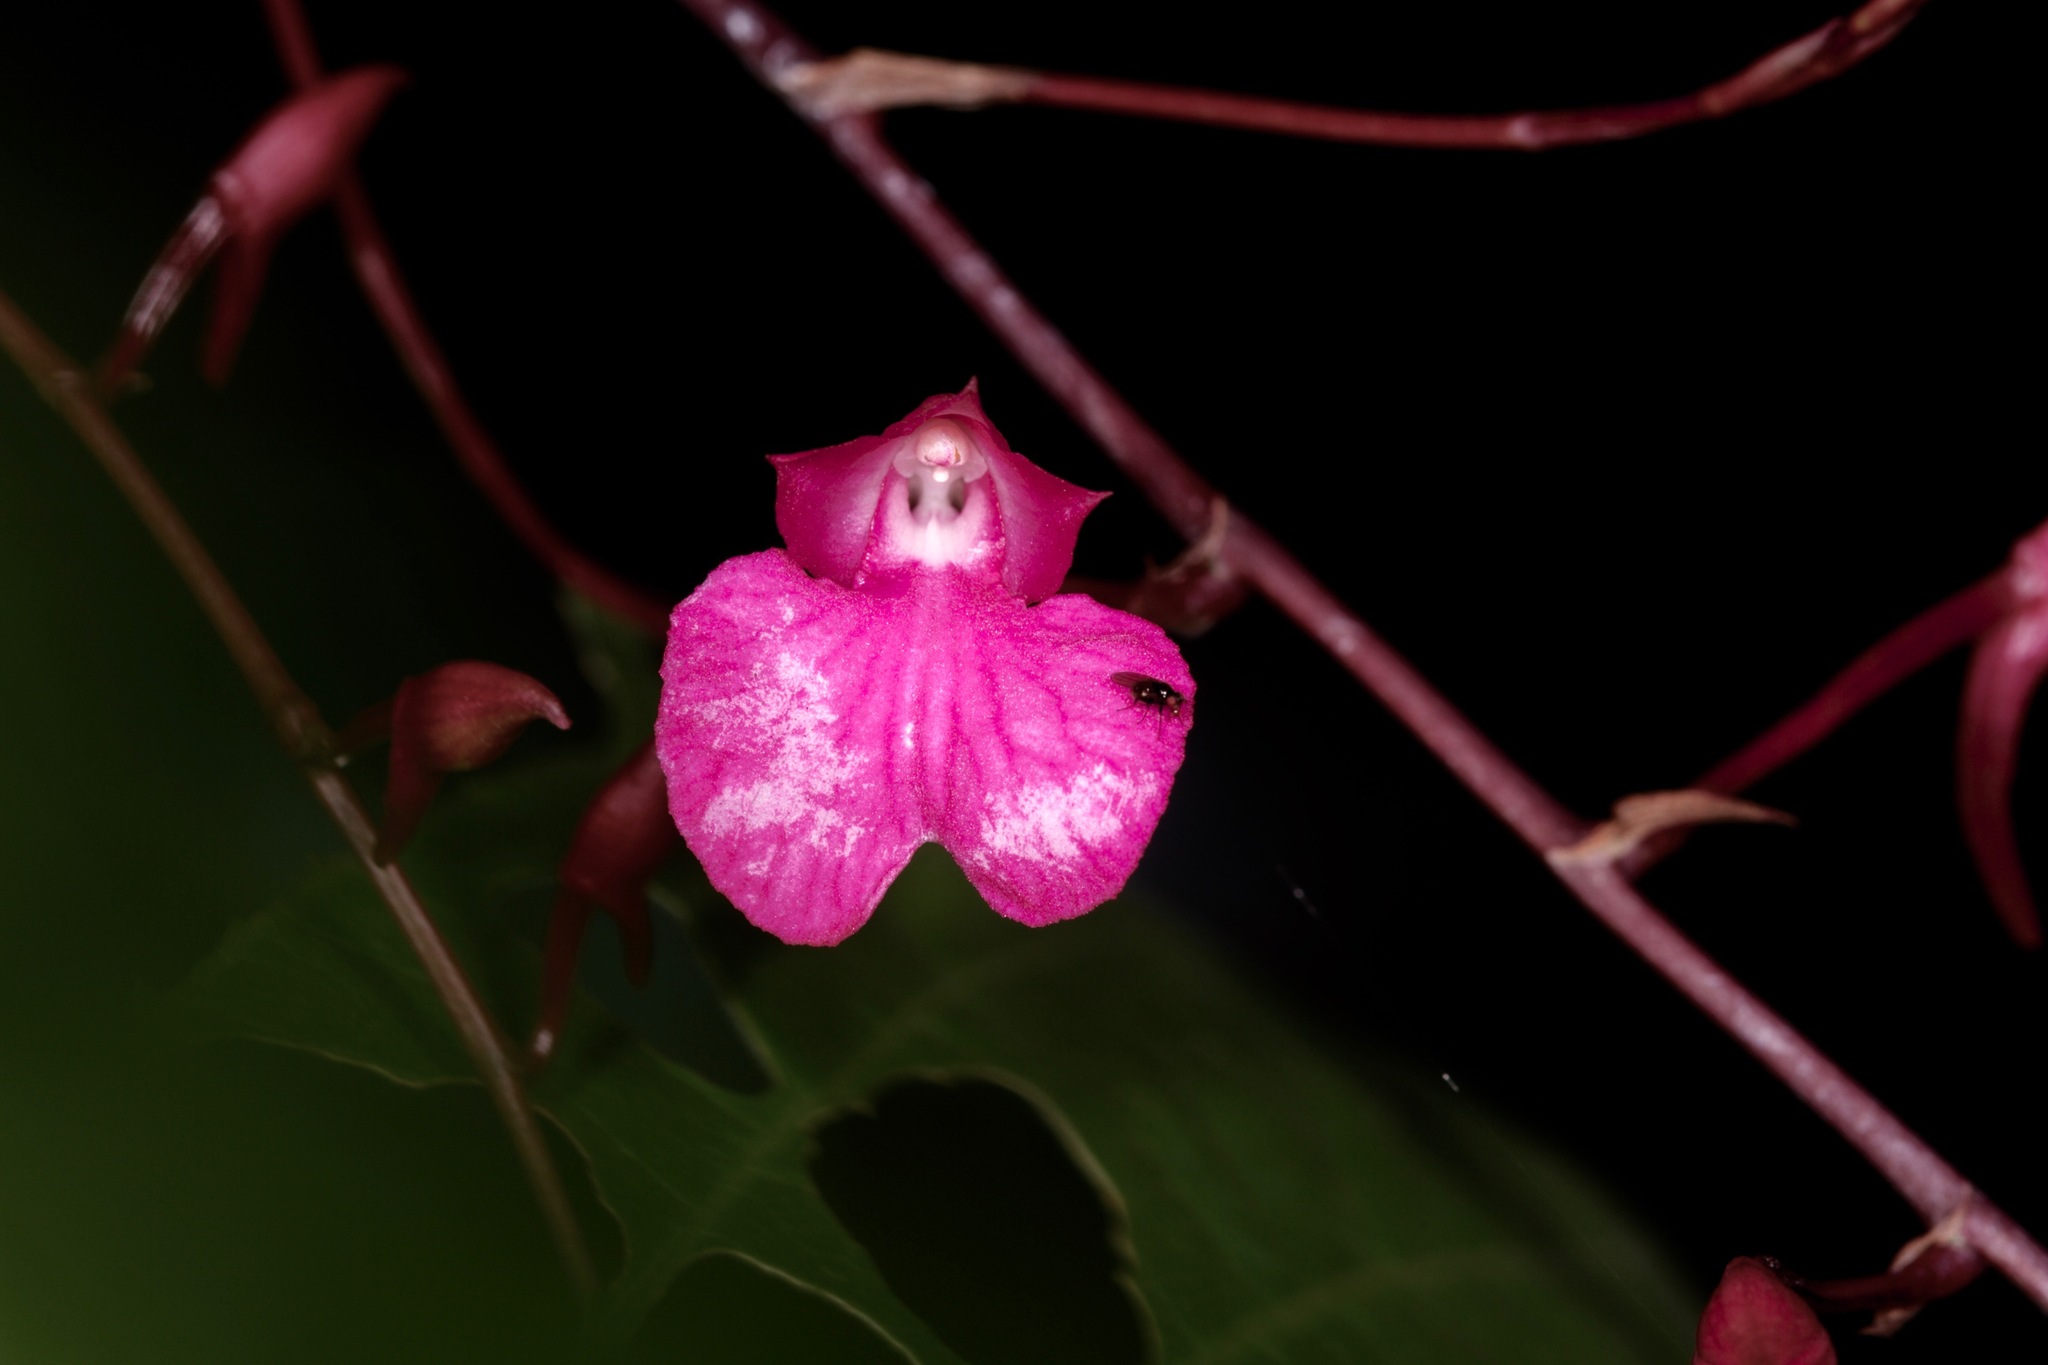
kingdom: Plantae
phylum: Tracheophyta
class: Liliopsida
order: Asparagales
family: Orchidaceae
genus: Comparettia
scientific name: Comparettia falcata
